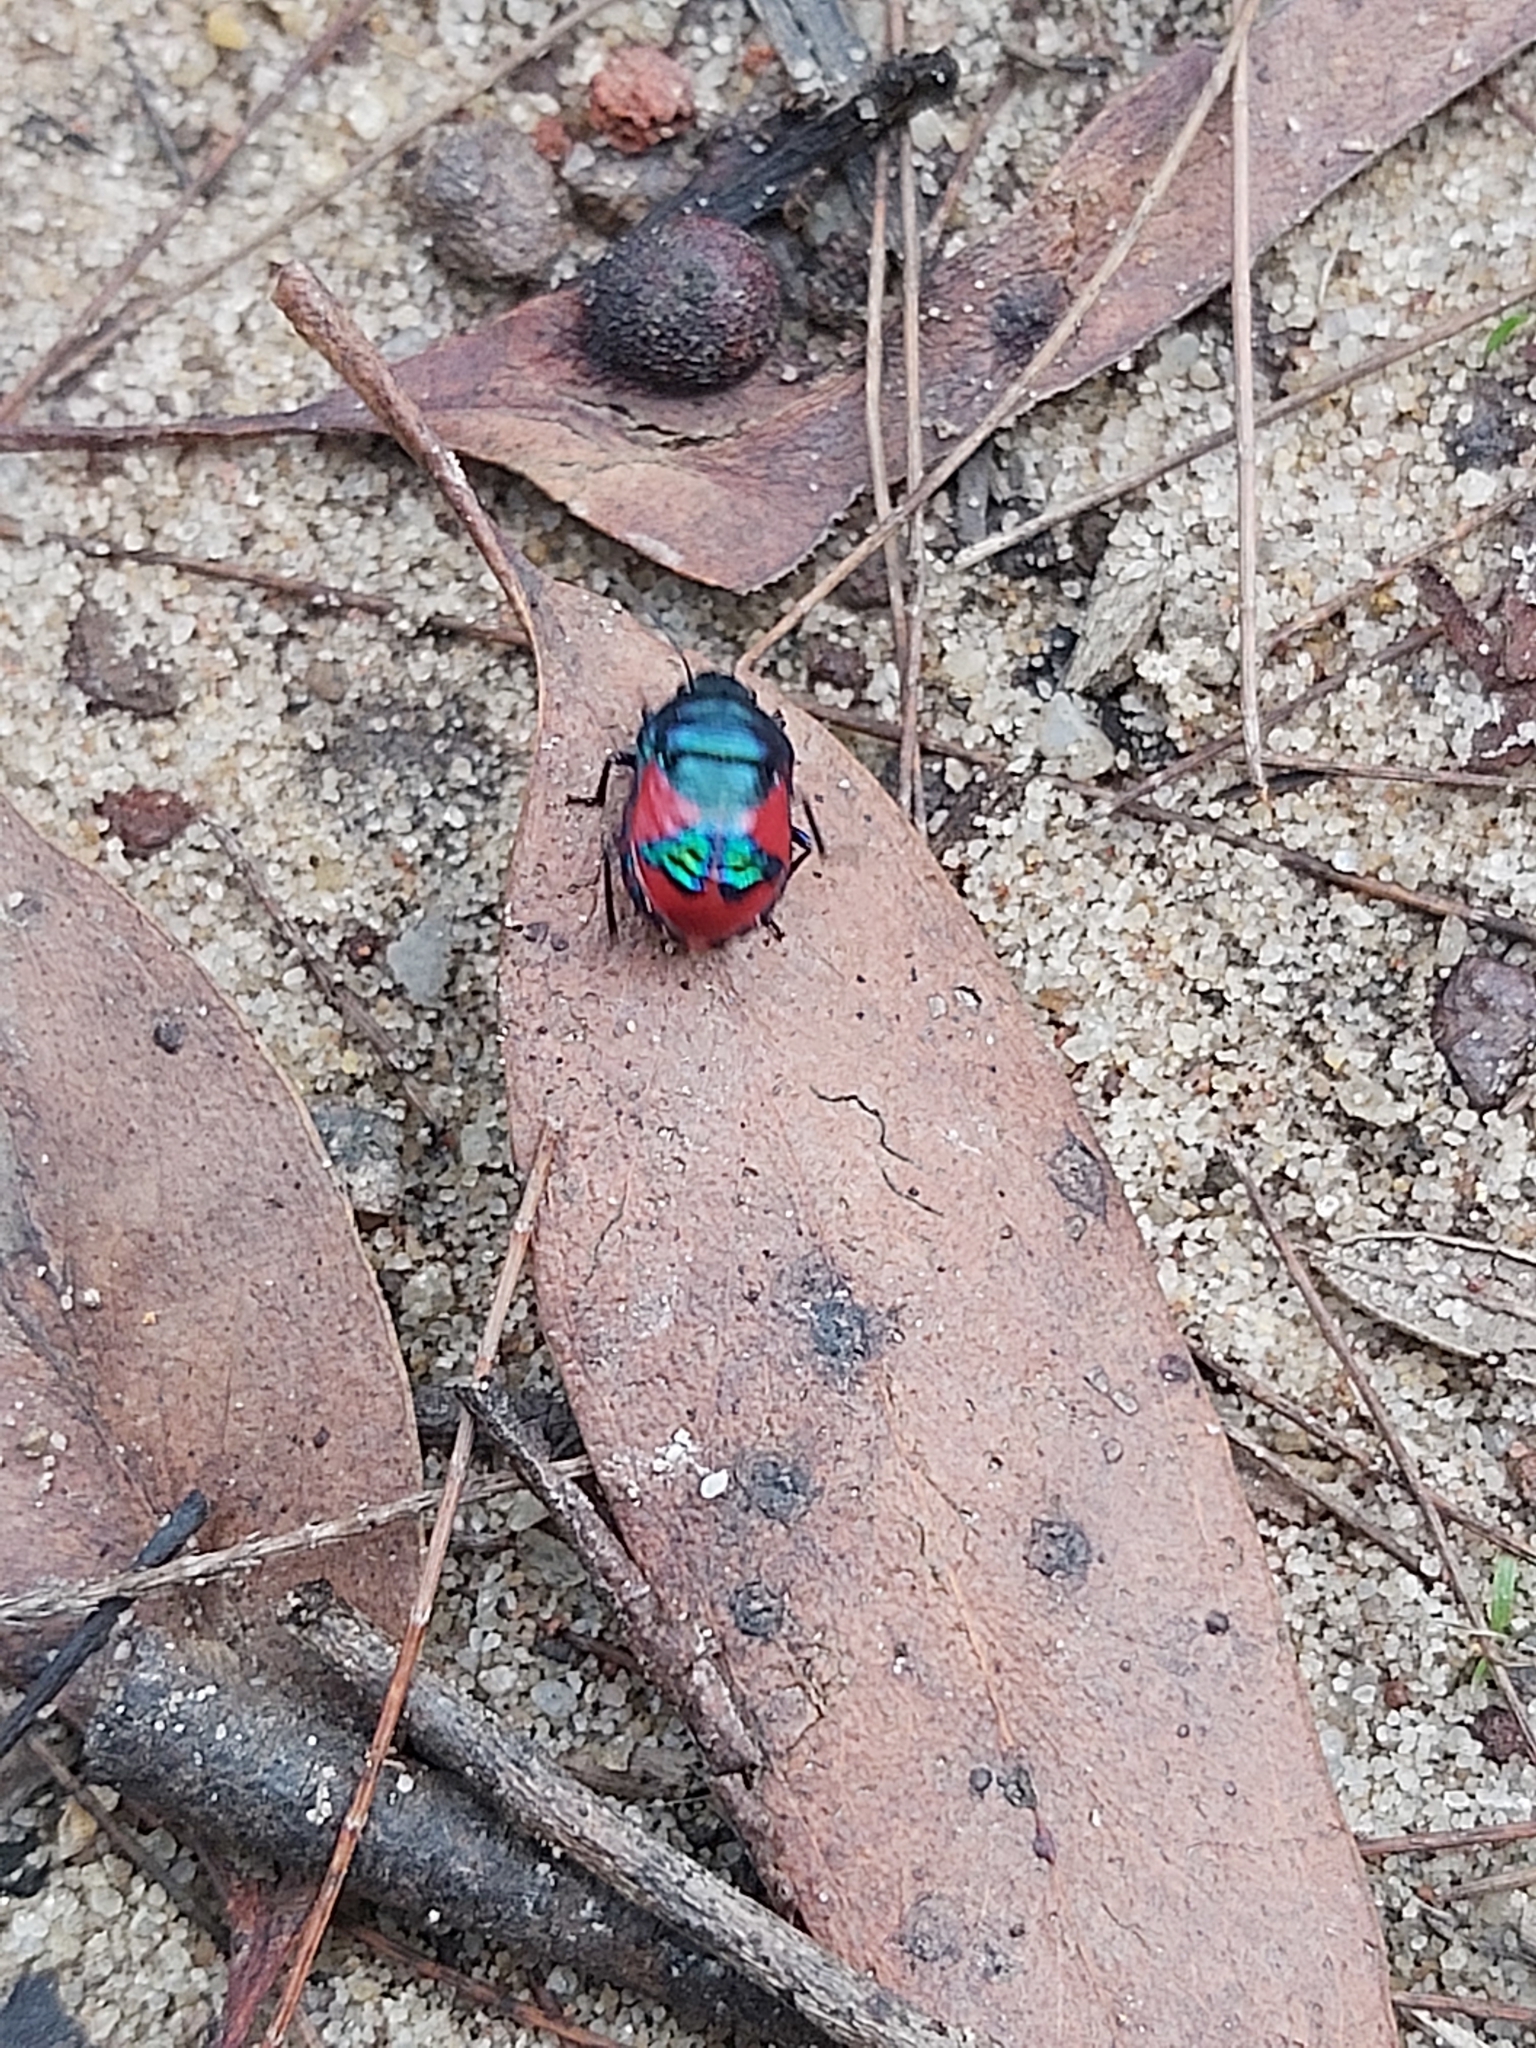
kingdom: Animalia
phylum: Arthropoda
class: Insecta
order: Hemiptera
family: Scutelleridae
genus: Choerocoris
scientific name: Choerocoris paganus
